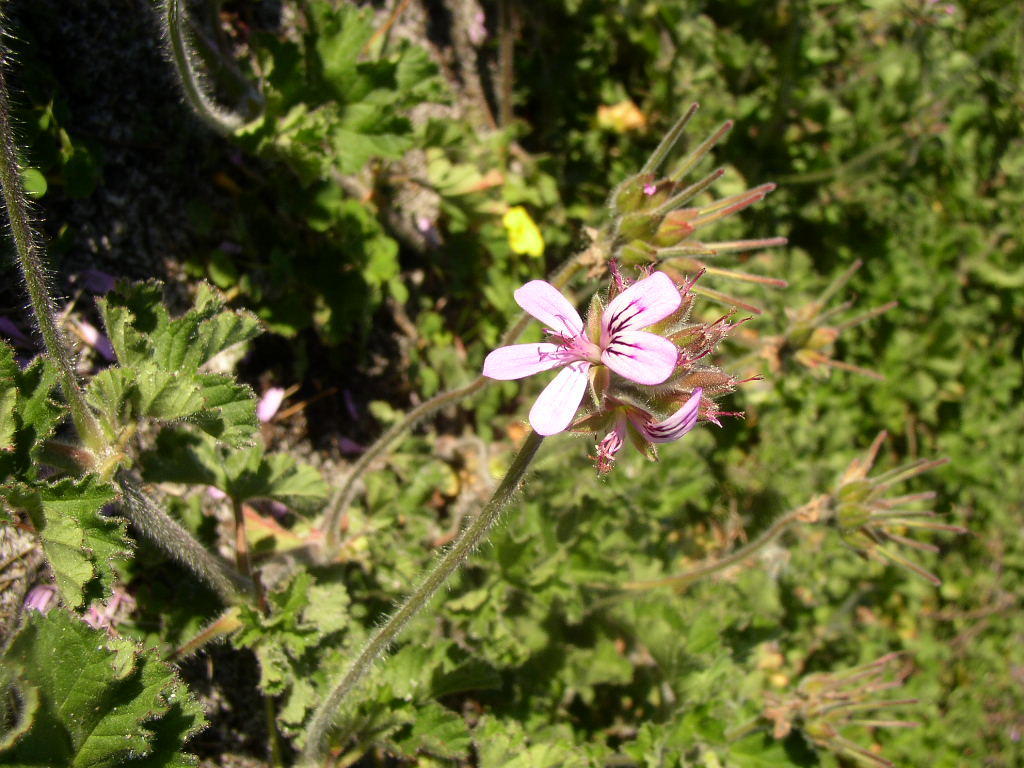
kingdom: Plantae
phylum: Tracheophyta
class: Magnoliopsida
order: Geraniales
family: Geraniaceae
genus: Pelargonium
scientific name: Pelargonium capitatum
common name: Rose scented geranium
